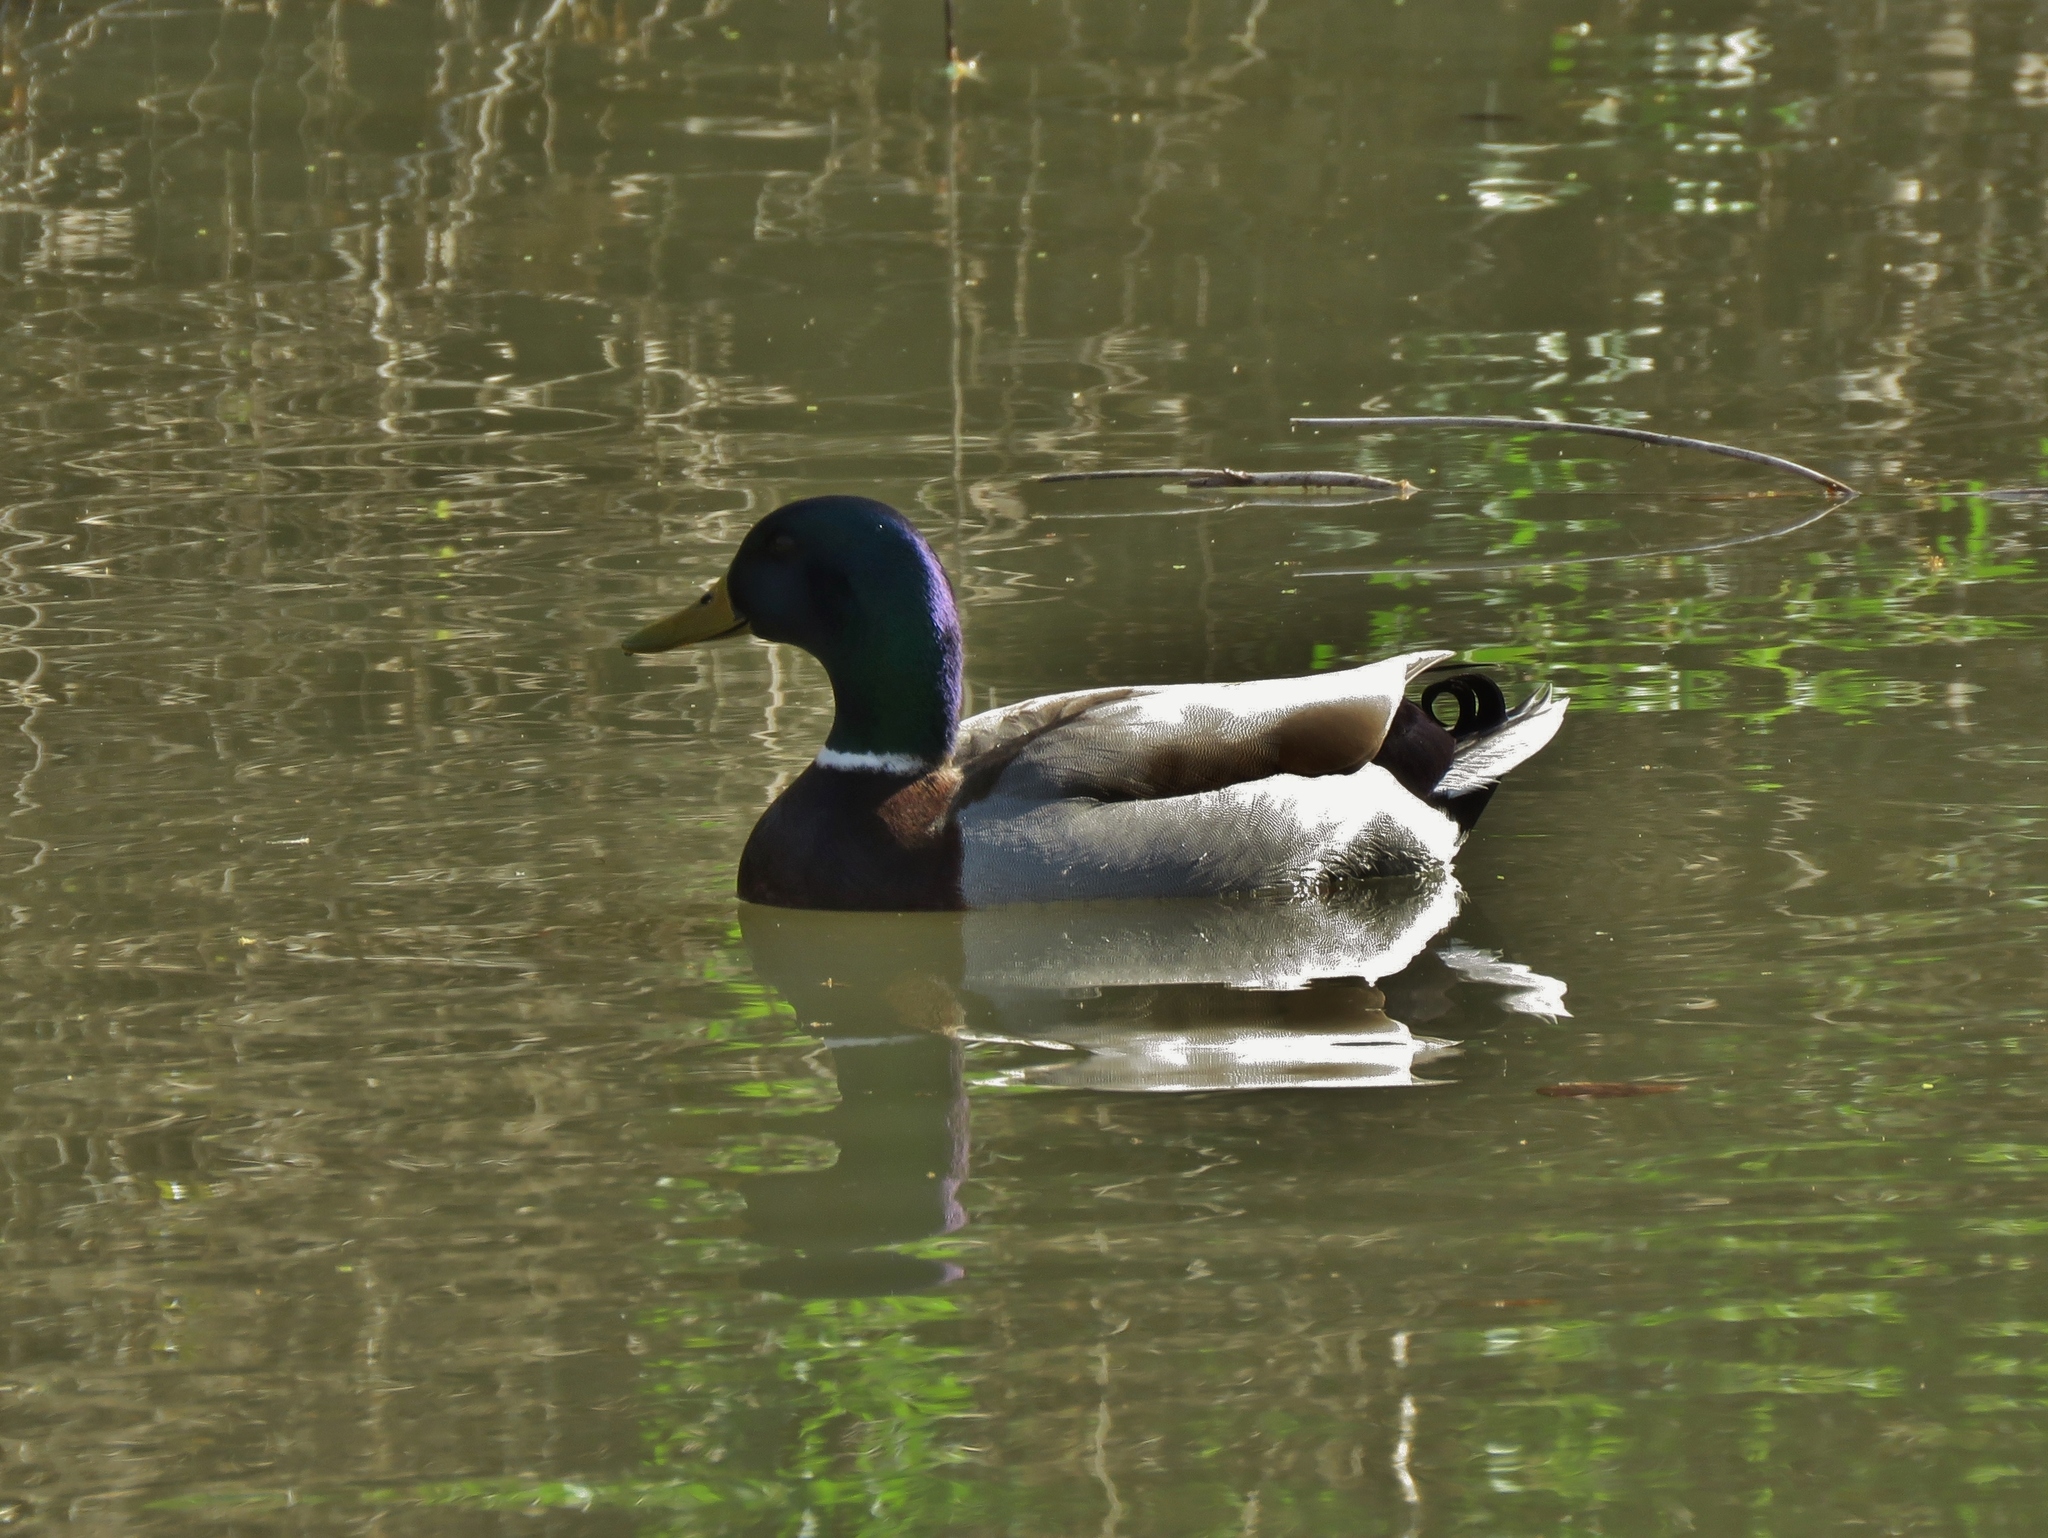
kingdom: Animalia
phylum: Chordata
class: Aves
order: Anseriformes
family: Anatidae
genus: Anas
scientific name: Anas platyrhynchos
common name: Mallard
